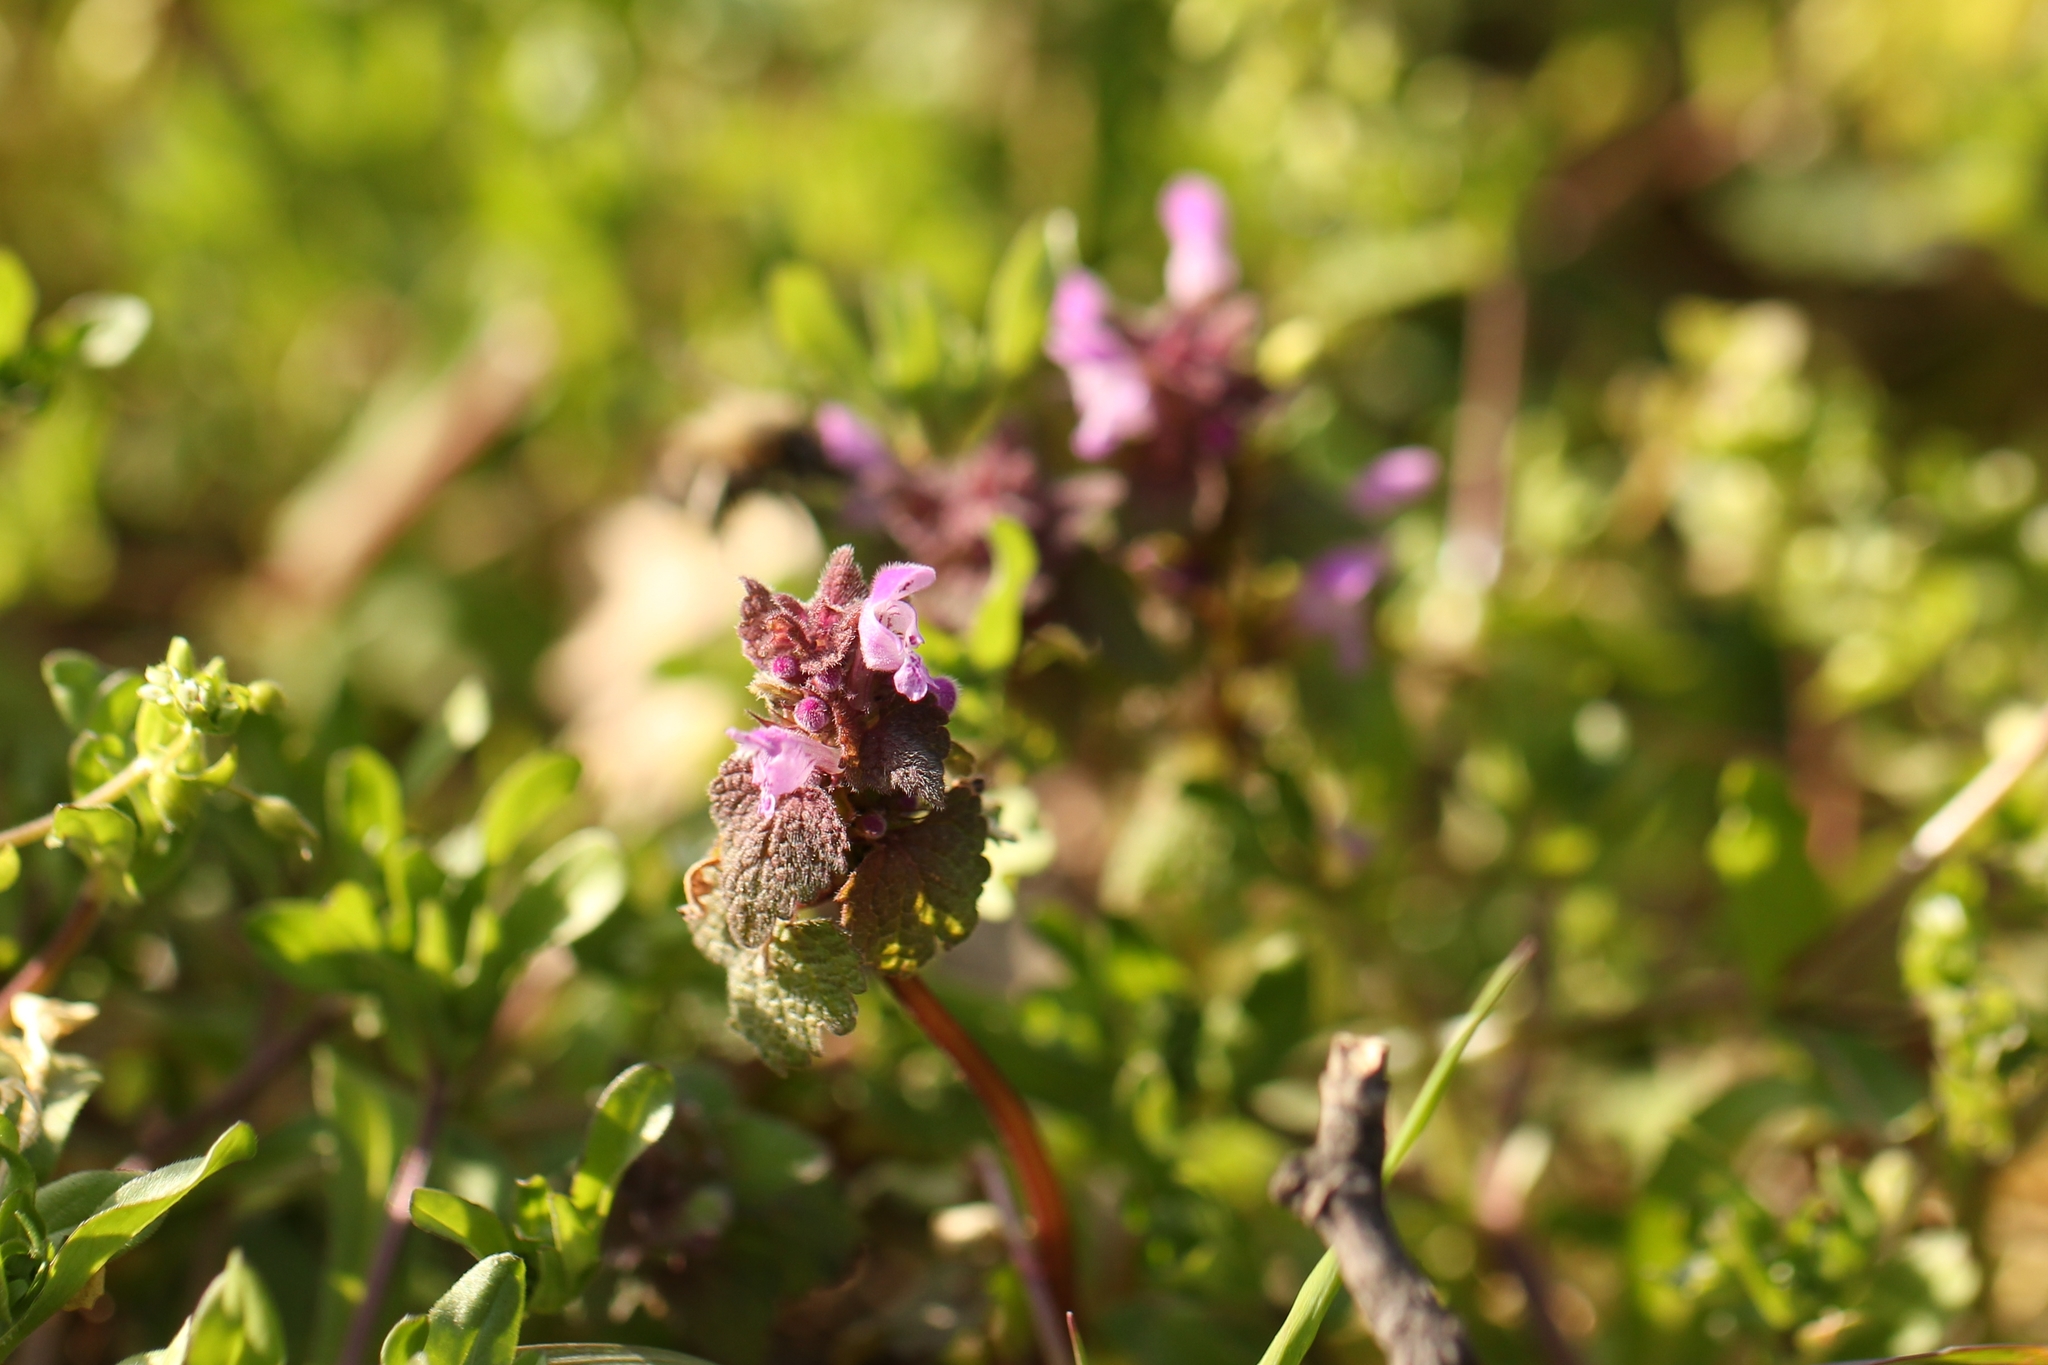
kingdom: Plantae
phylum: Tracheophyta
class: Magnoliopsida
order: Lamiales
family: Lamiaceae
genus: Lamium
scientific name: Lamium purpureum
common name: Red dead-nettle
